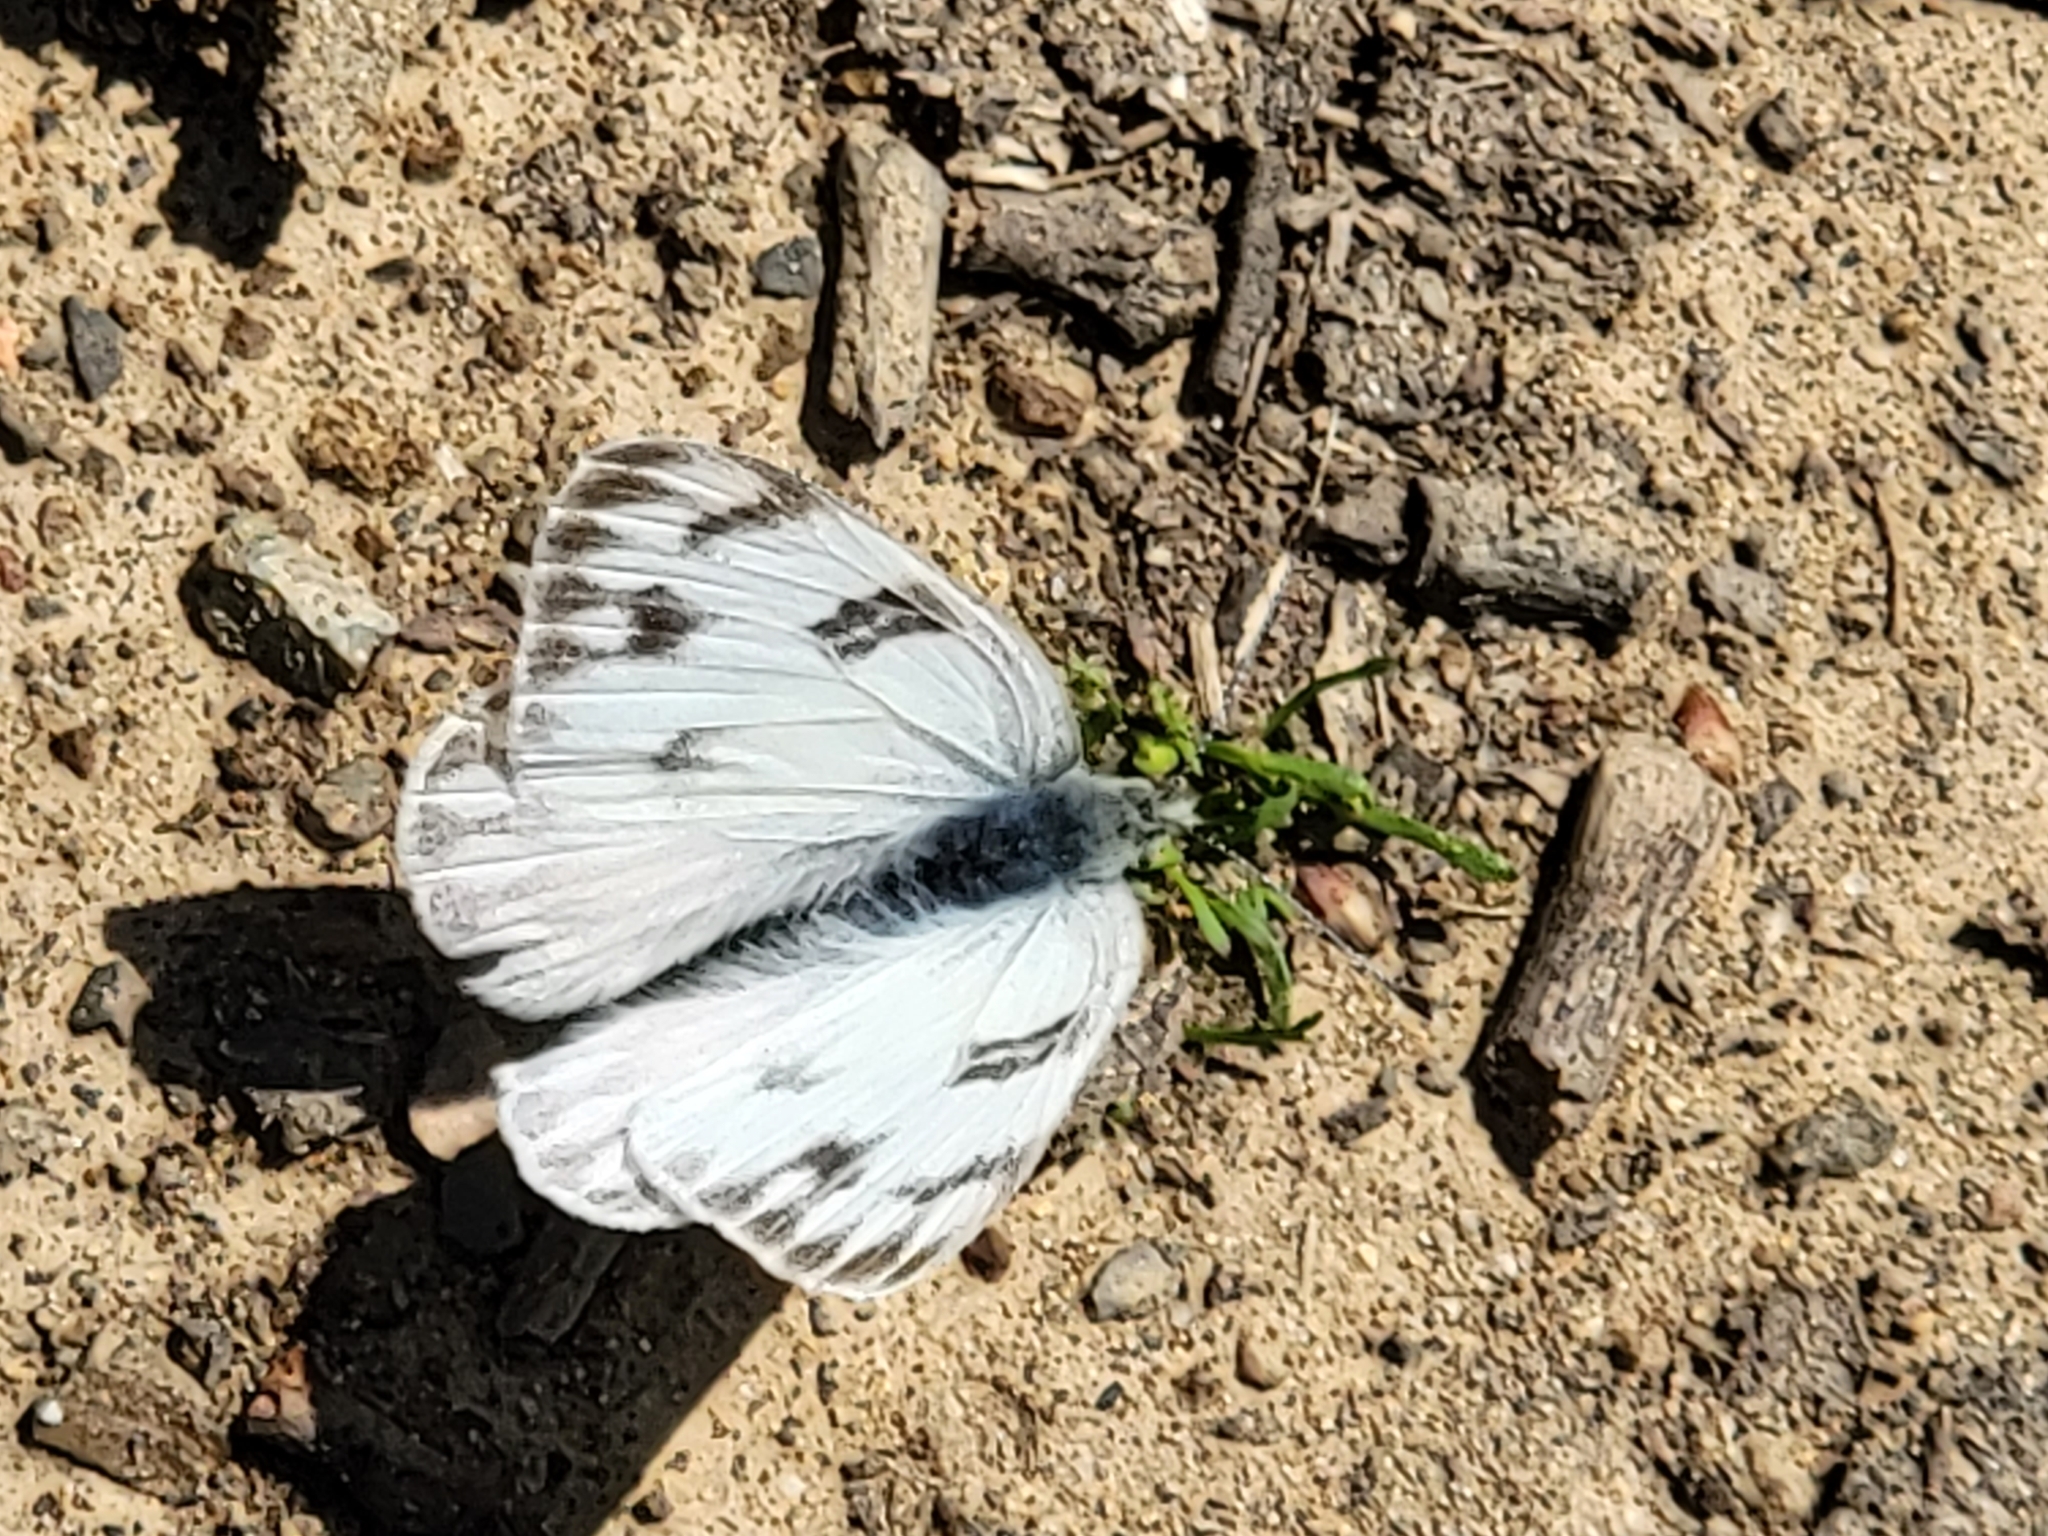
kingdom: Animalia
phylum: Arthropoda
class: Insecta
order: Lepidoptera
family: Pieridae
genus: Pontia
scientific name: Pontia protodice
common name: Checkered white
